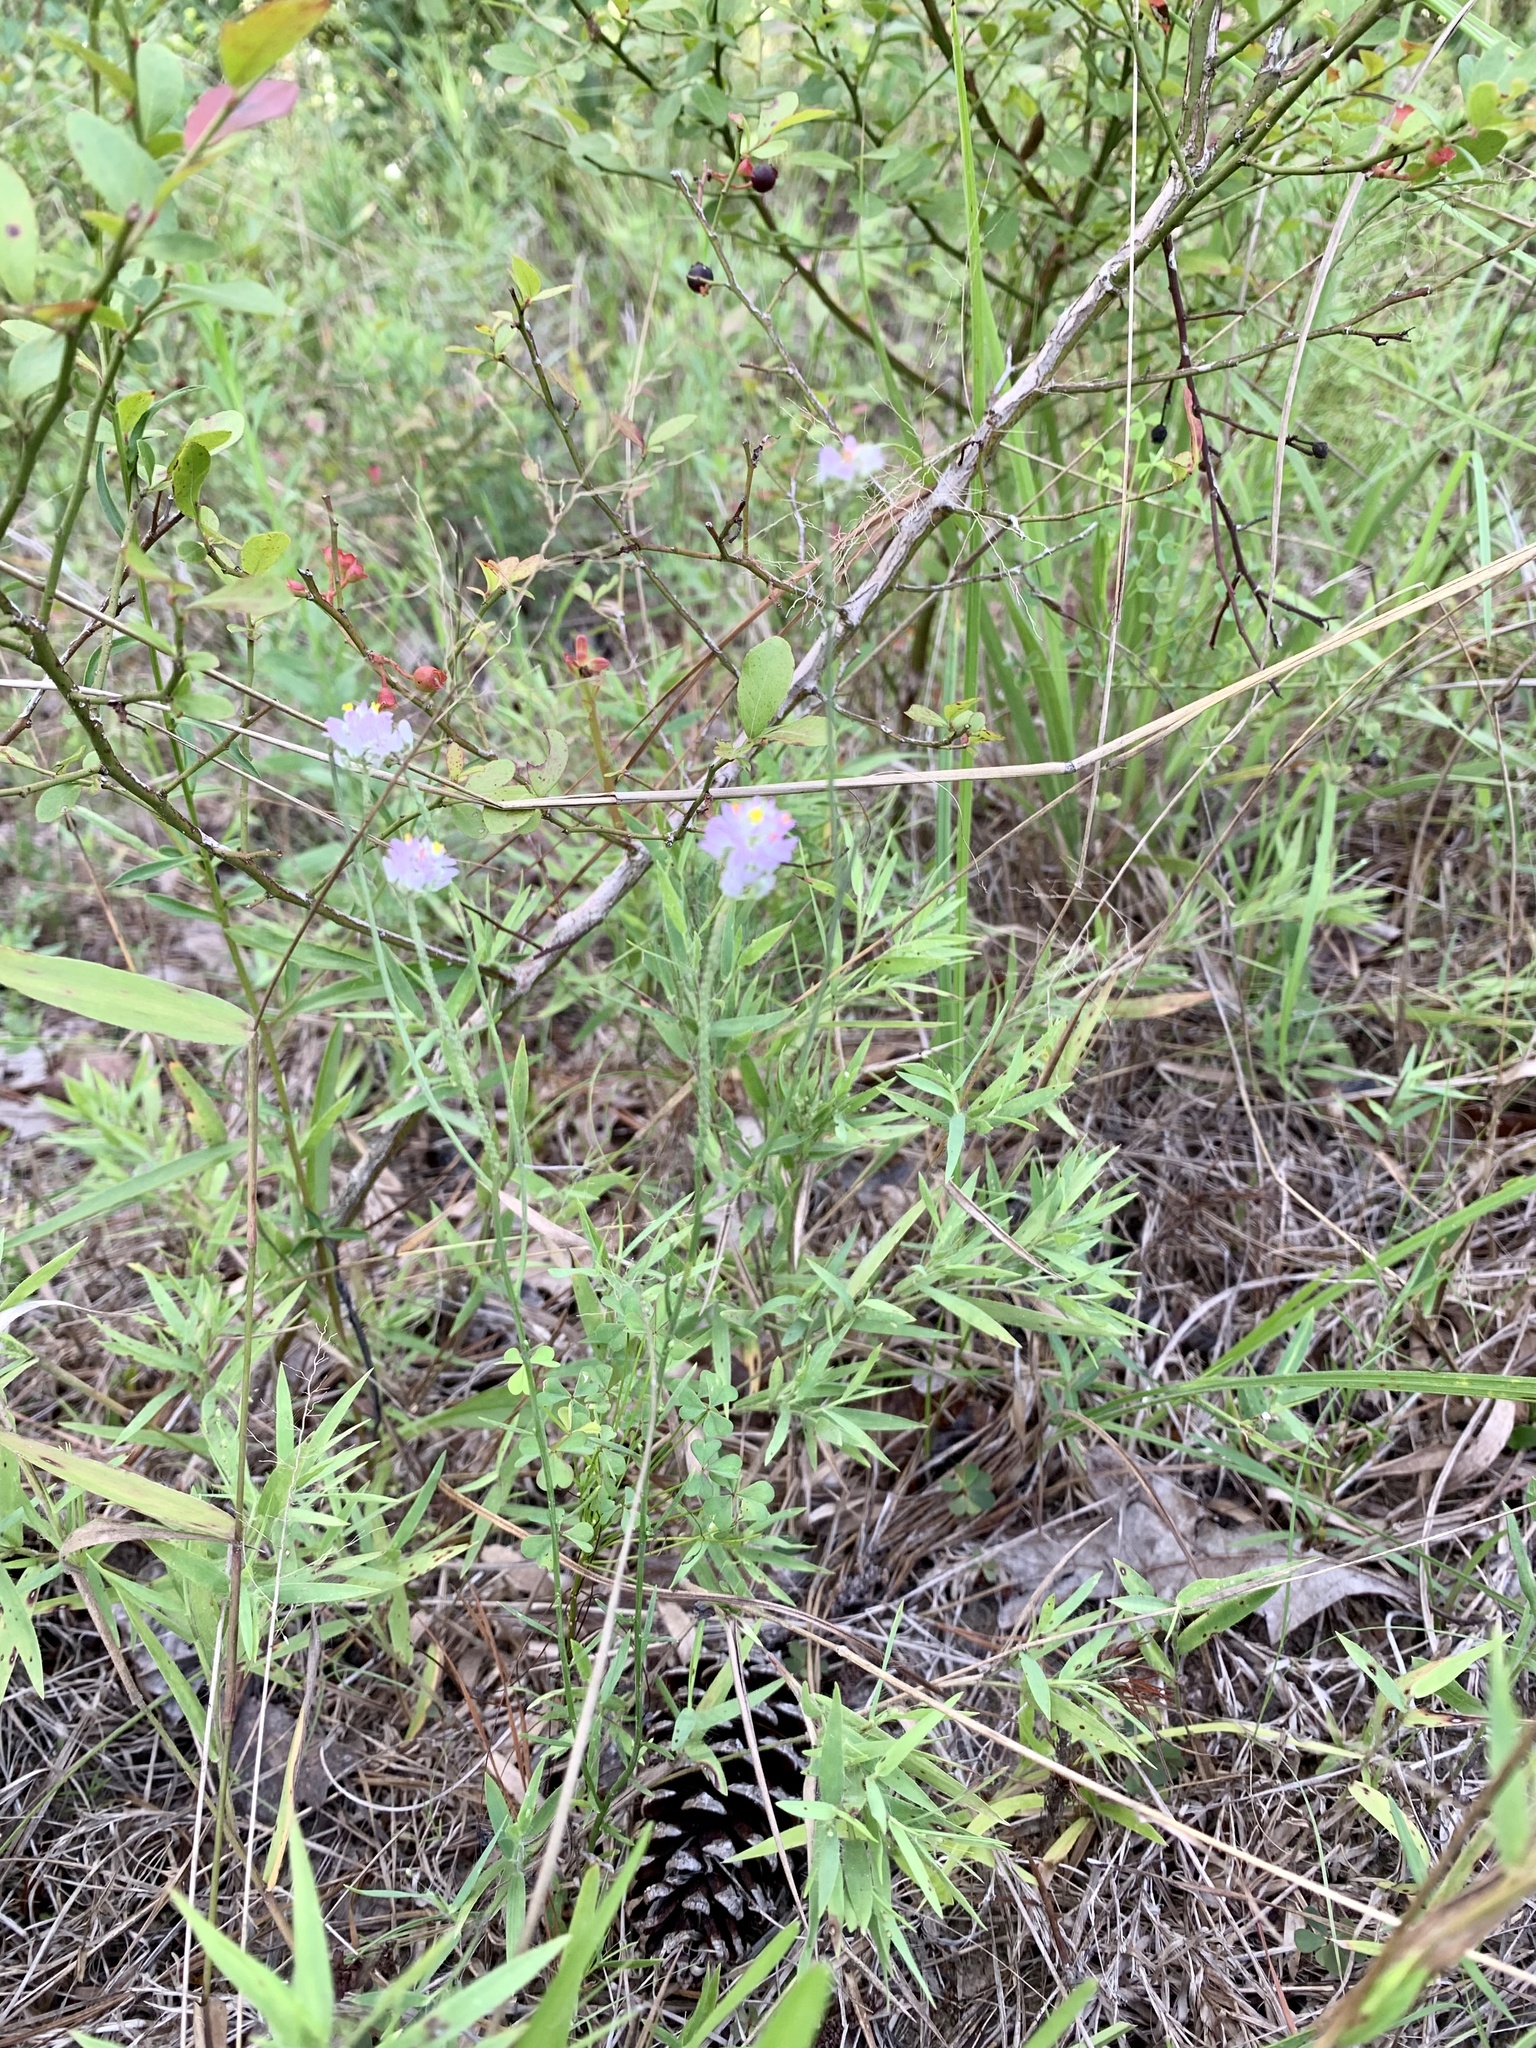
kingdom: Plantae
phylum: Tracheophyta
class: Magnoliopsida
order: Fabales
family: Polygalaceae
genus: Polygala
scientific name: Polygala mariana
